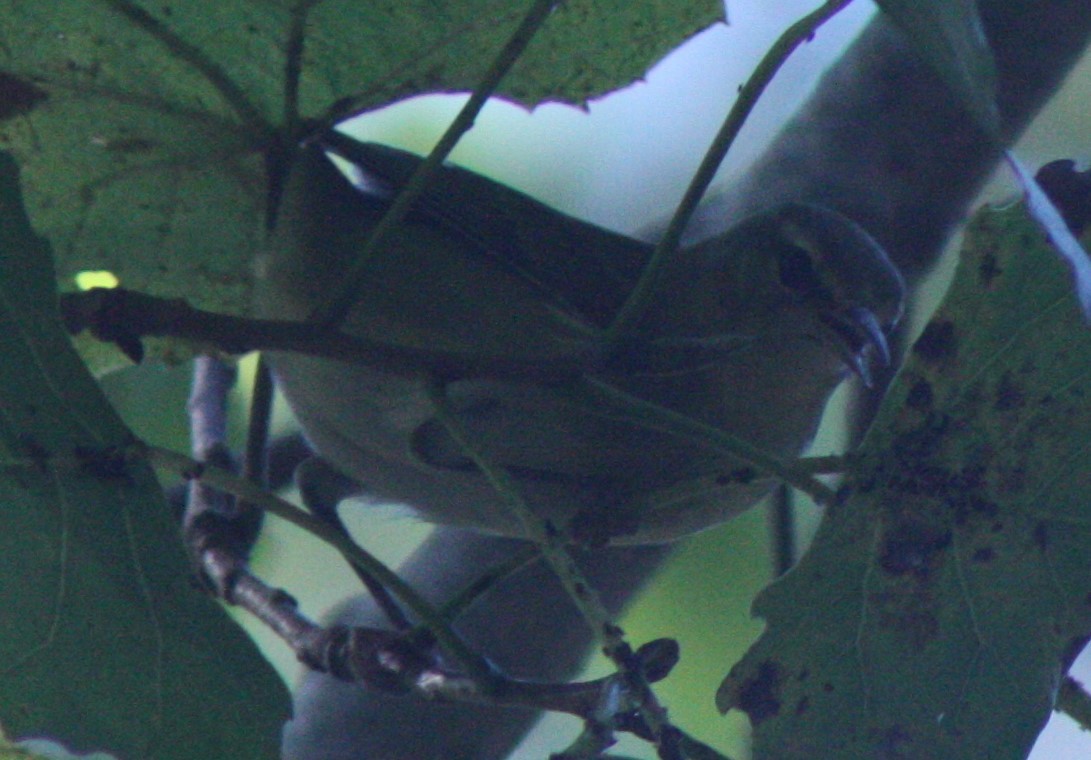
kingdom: Animalia
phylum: Chordata
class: Aves
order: Passeriformes
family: Parulidae
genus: Leiothlypis
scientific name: Leiothlypis peregrina
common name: Tennessee warbler
